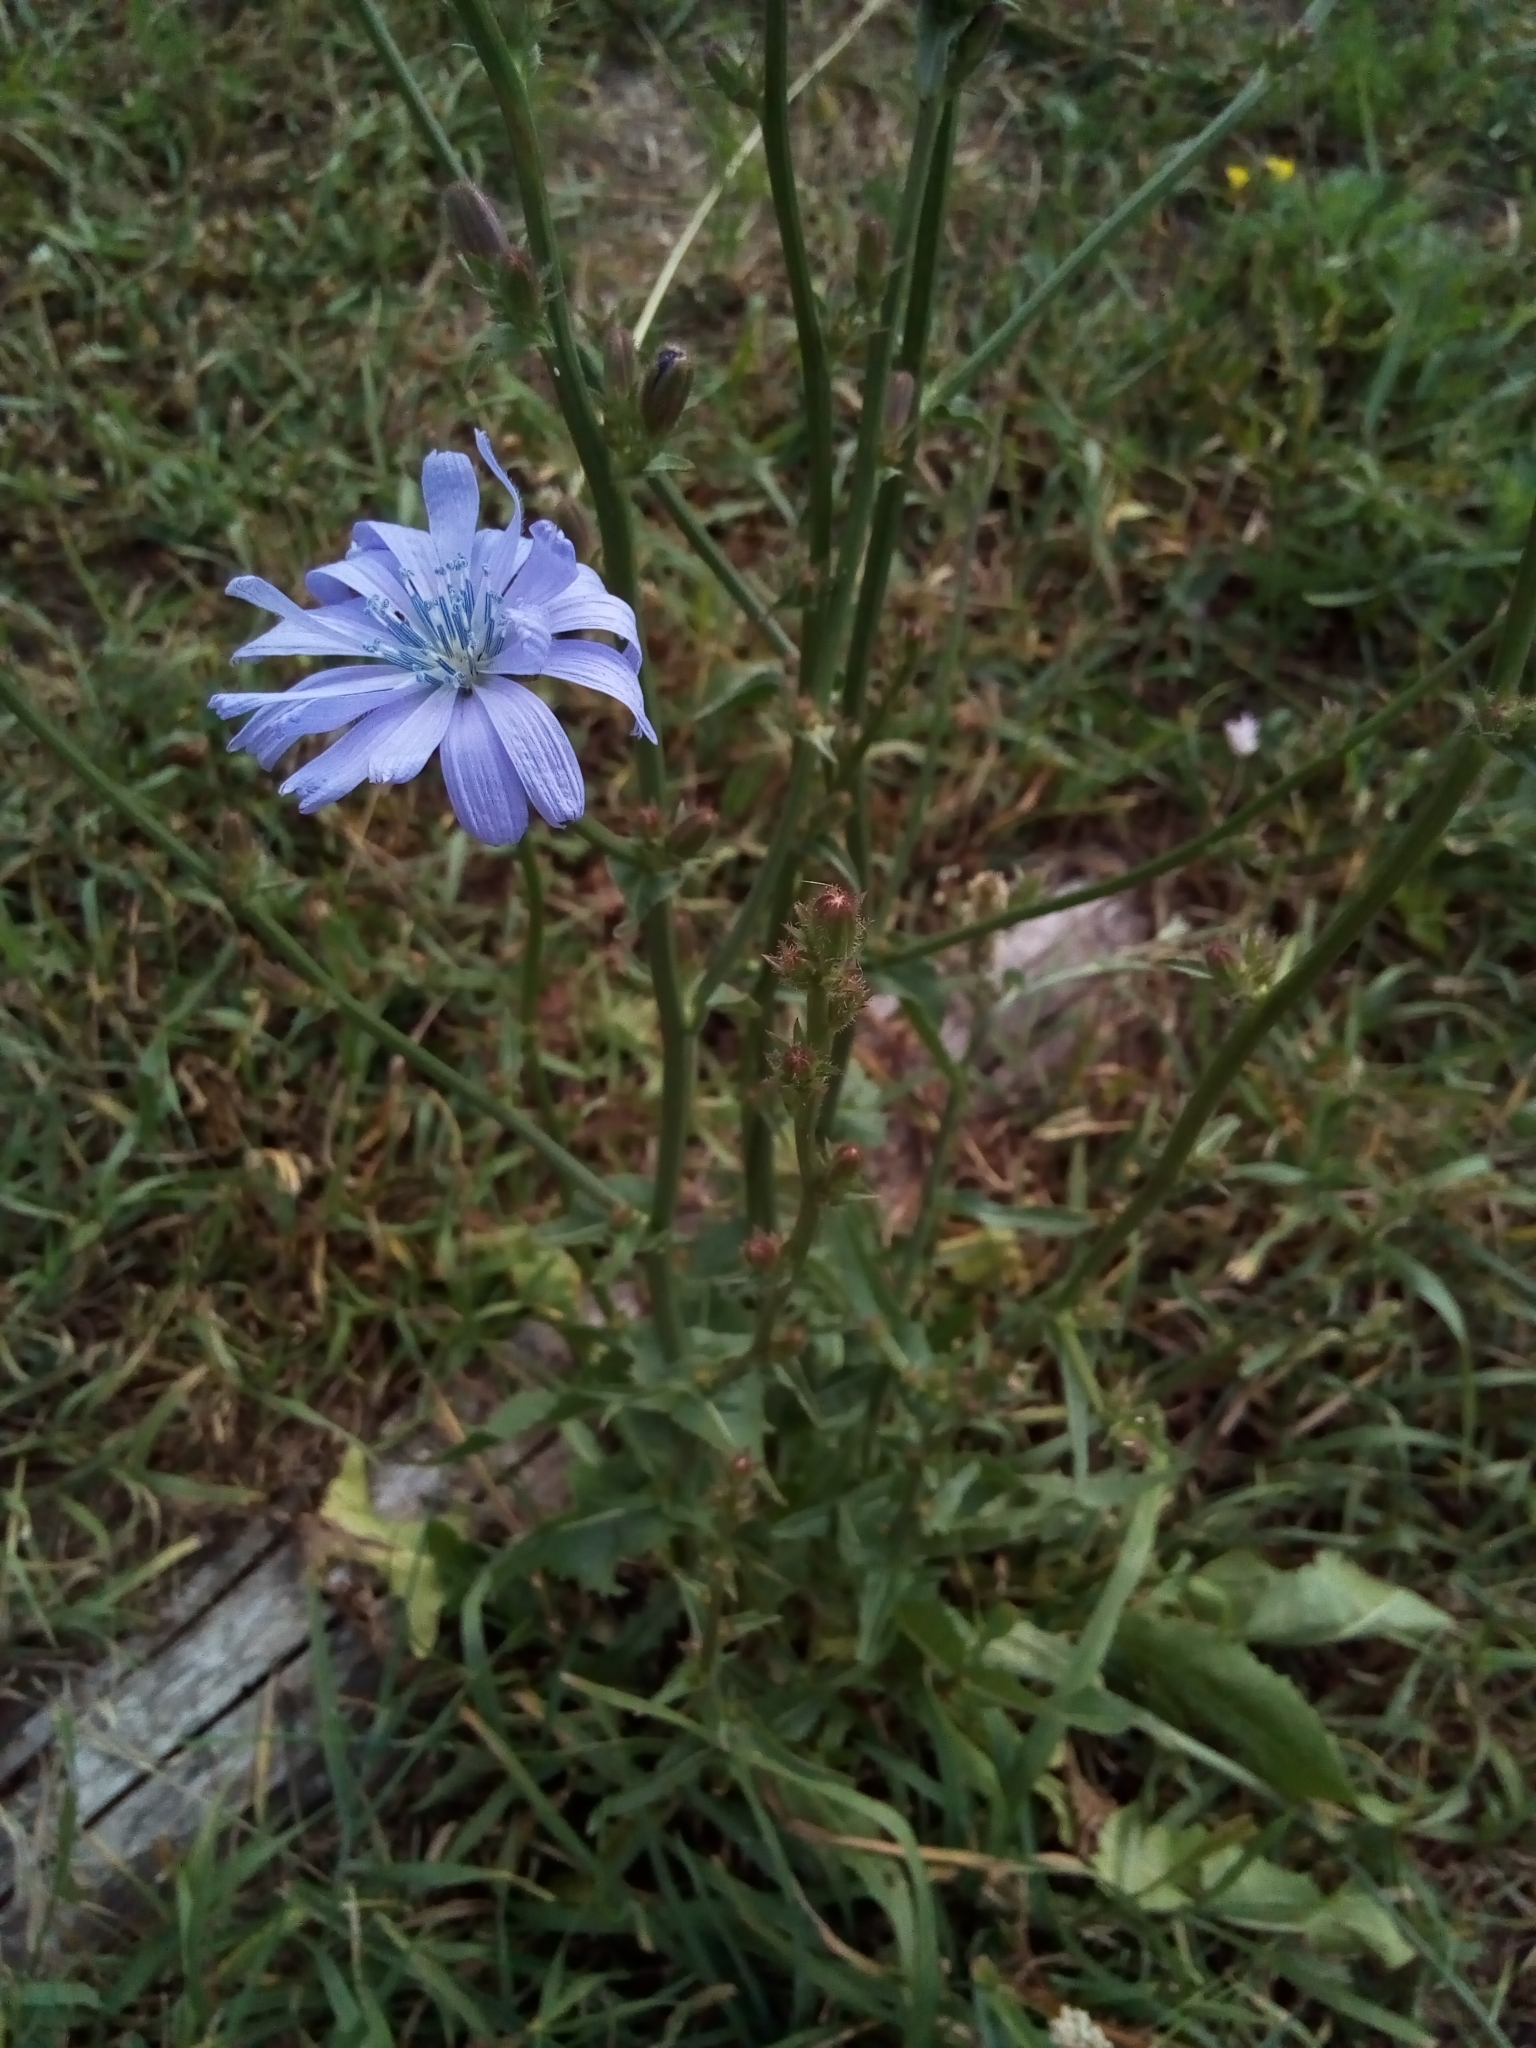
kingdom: Plantae
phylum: Tracheophyta
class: Magnoliopsida
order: Asterales
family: Asteraceae
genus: Cichorium
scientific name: Cichorium intybus
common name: Chicory
